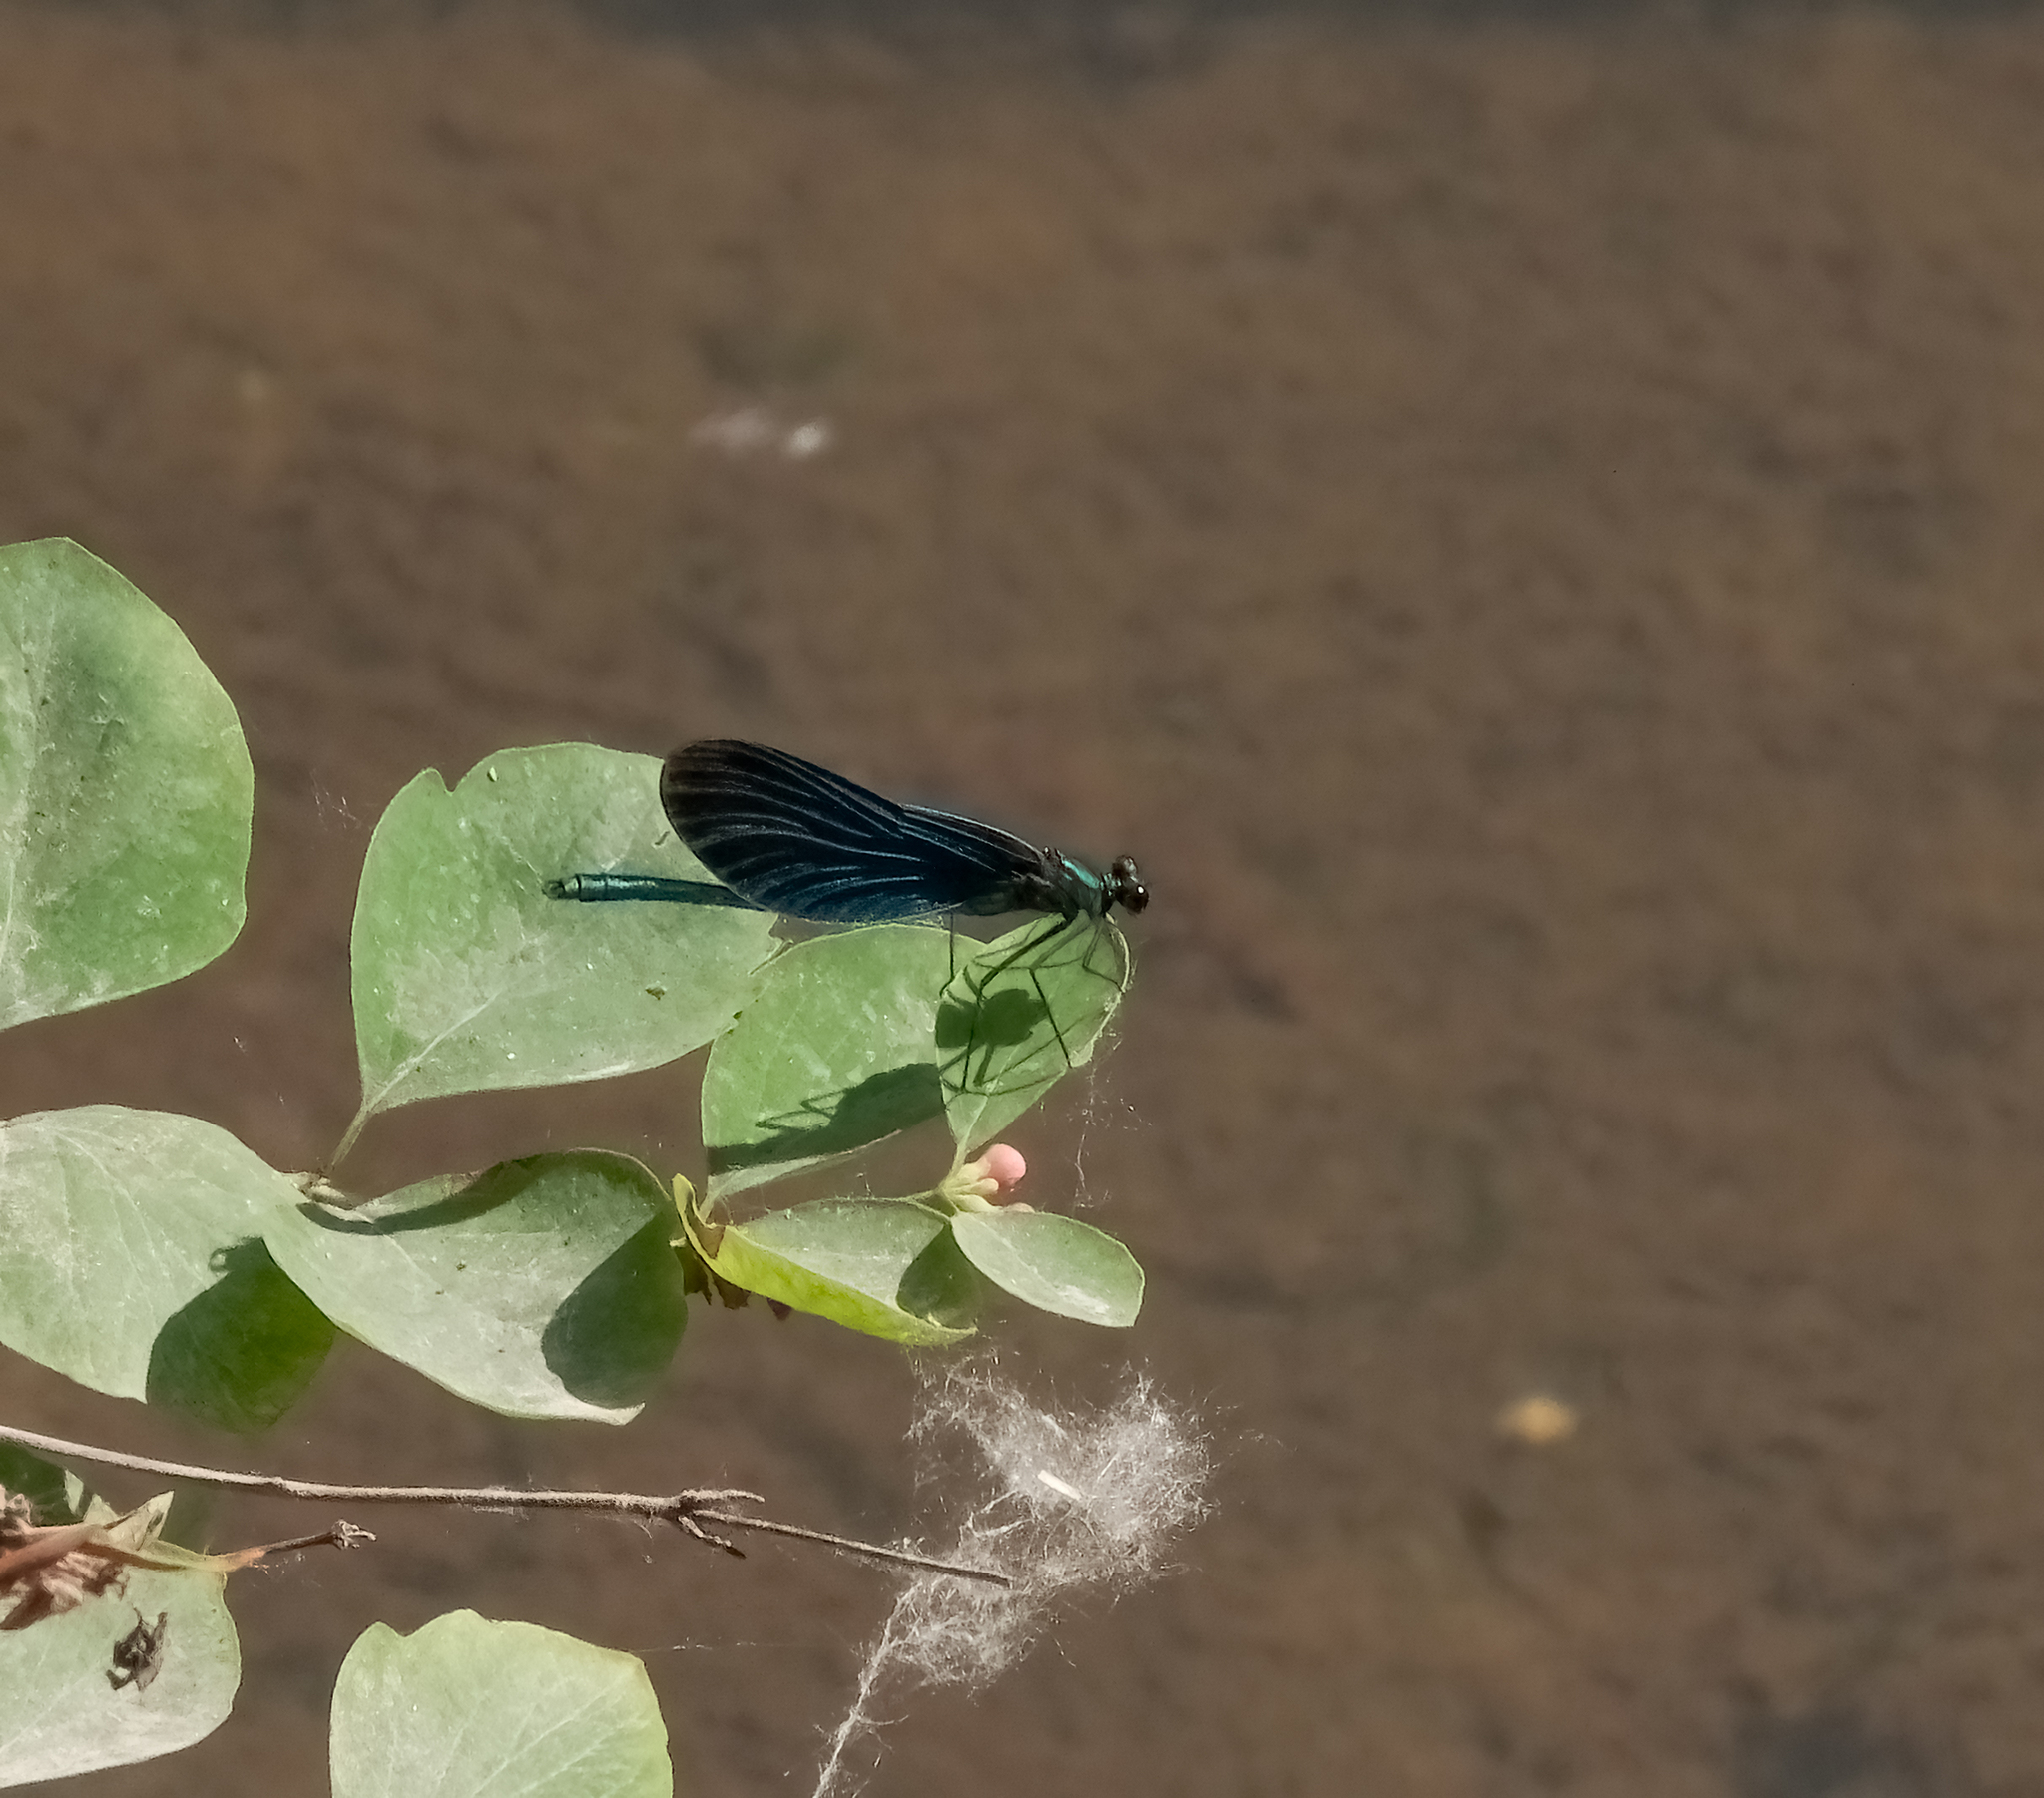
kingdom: Animalia
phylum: Arthropoda
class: Insecta
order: Odonata
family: Calopterygidae
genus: Calopteryx
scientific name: Calopteryx virgo
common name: Beautiful demoiselle
